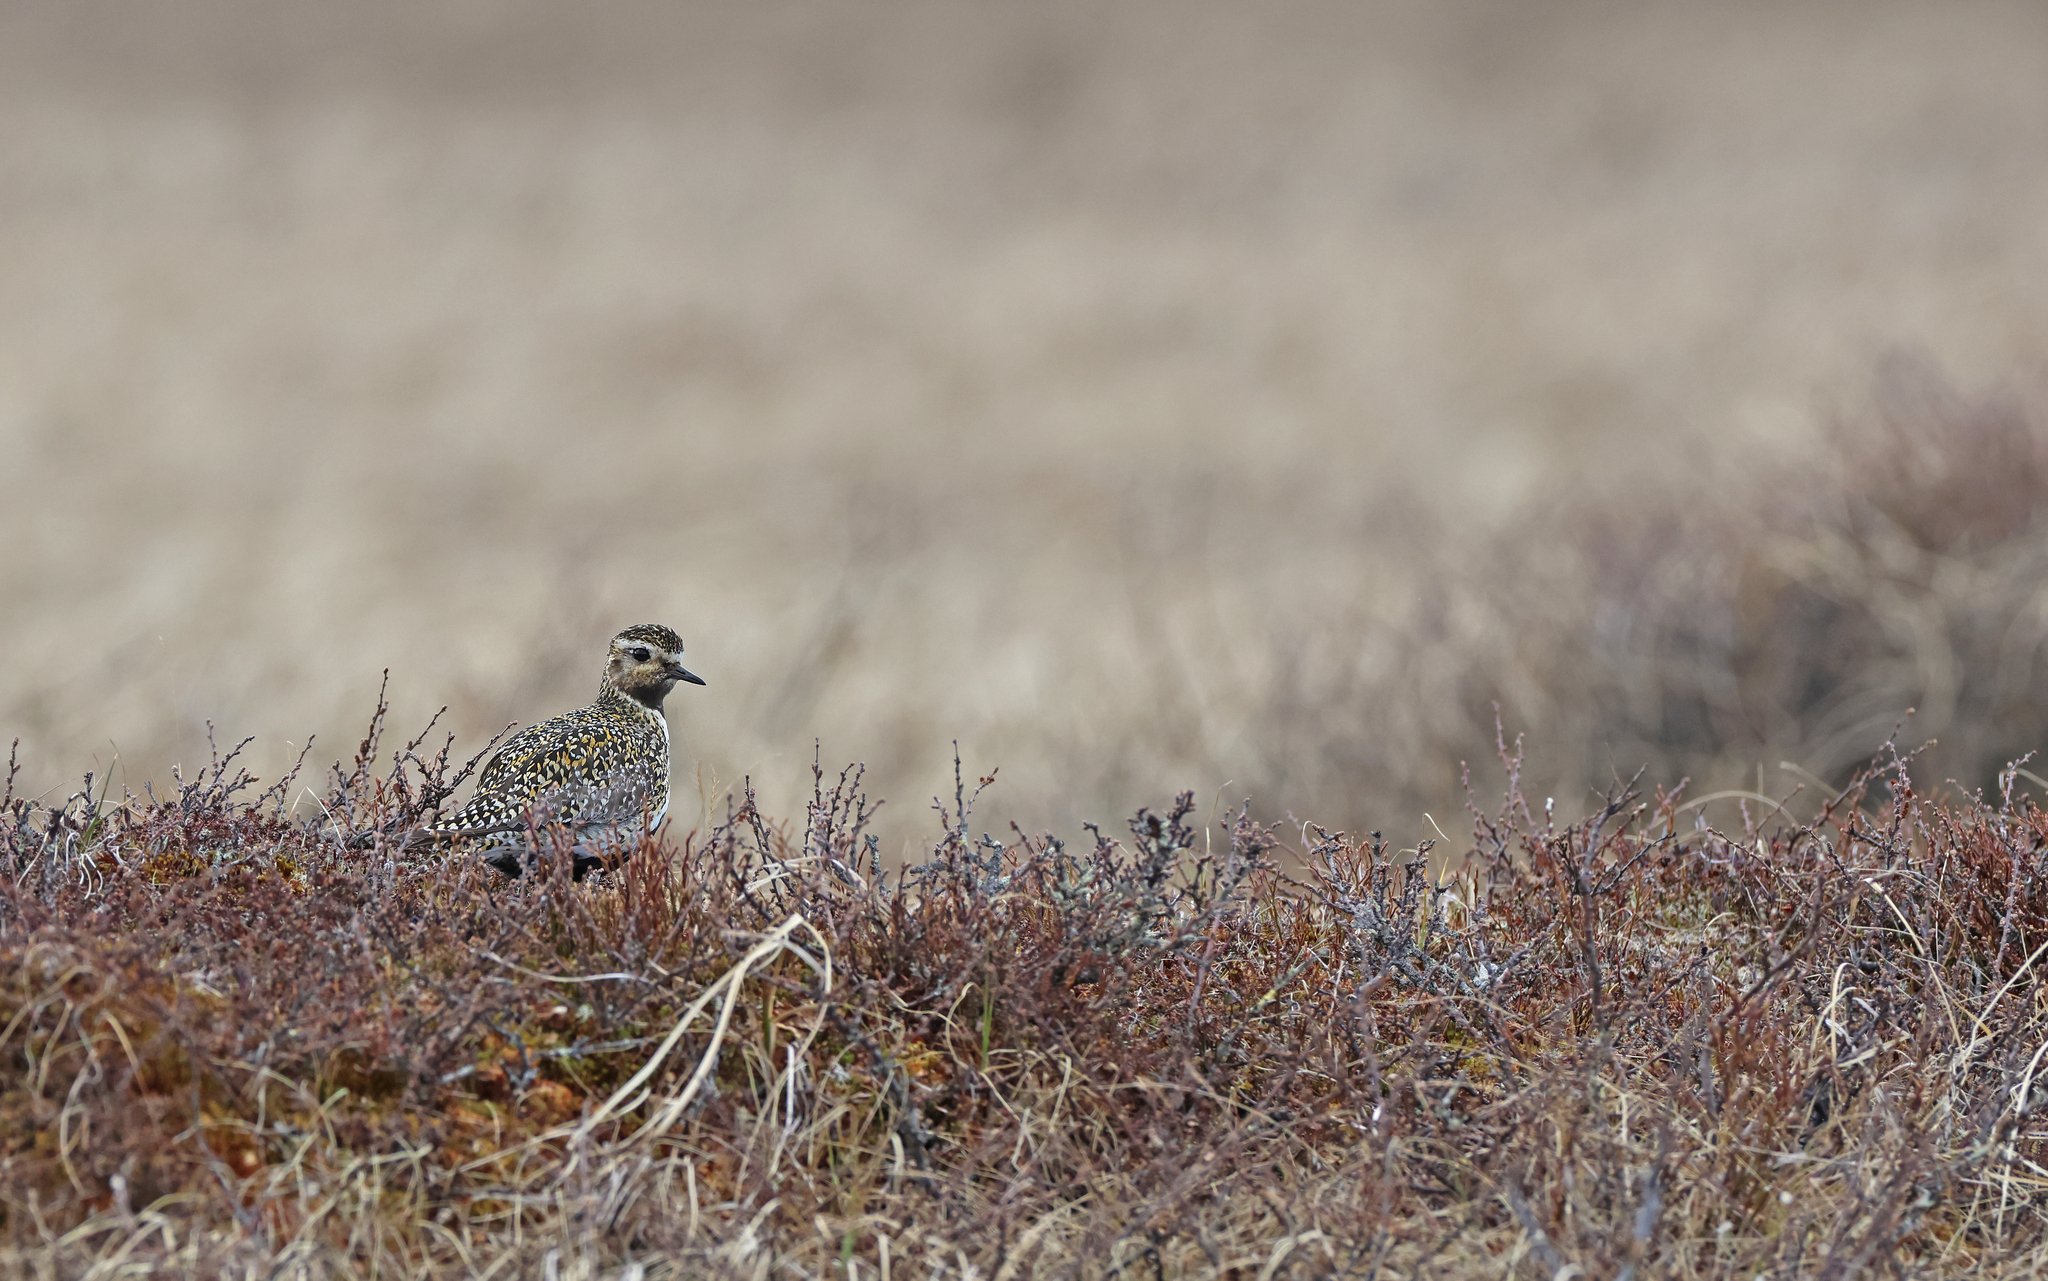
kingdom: Animalia
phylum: Chordata
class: Aves
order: Charadriiformes
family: Charadriidae
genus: Pluvialis
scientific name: Pluvialis apricaria
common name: European golden plover
